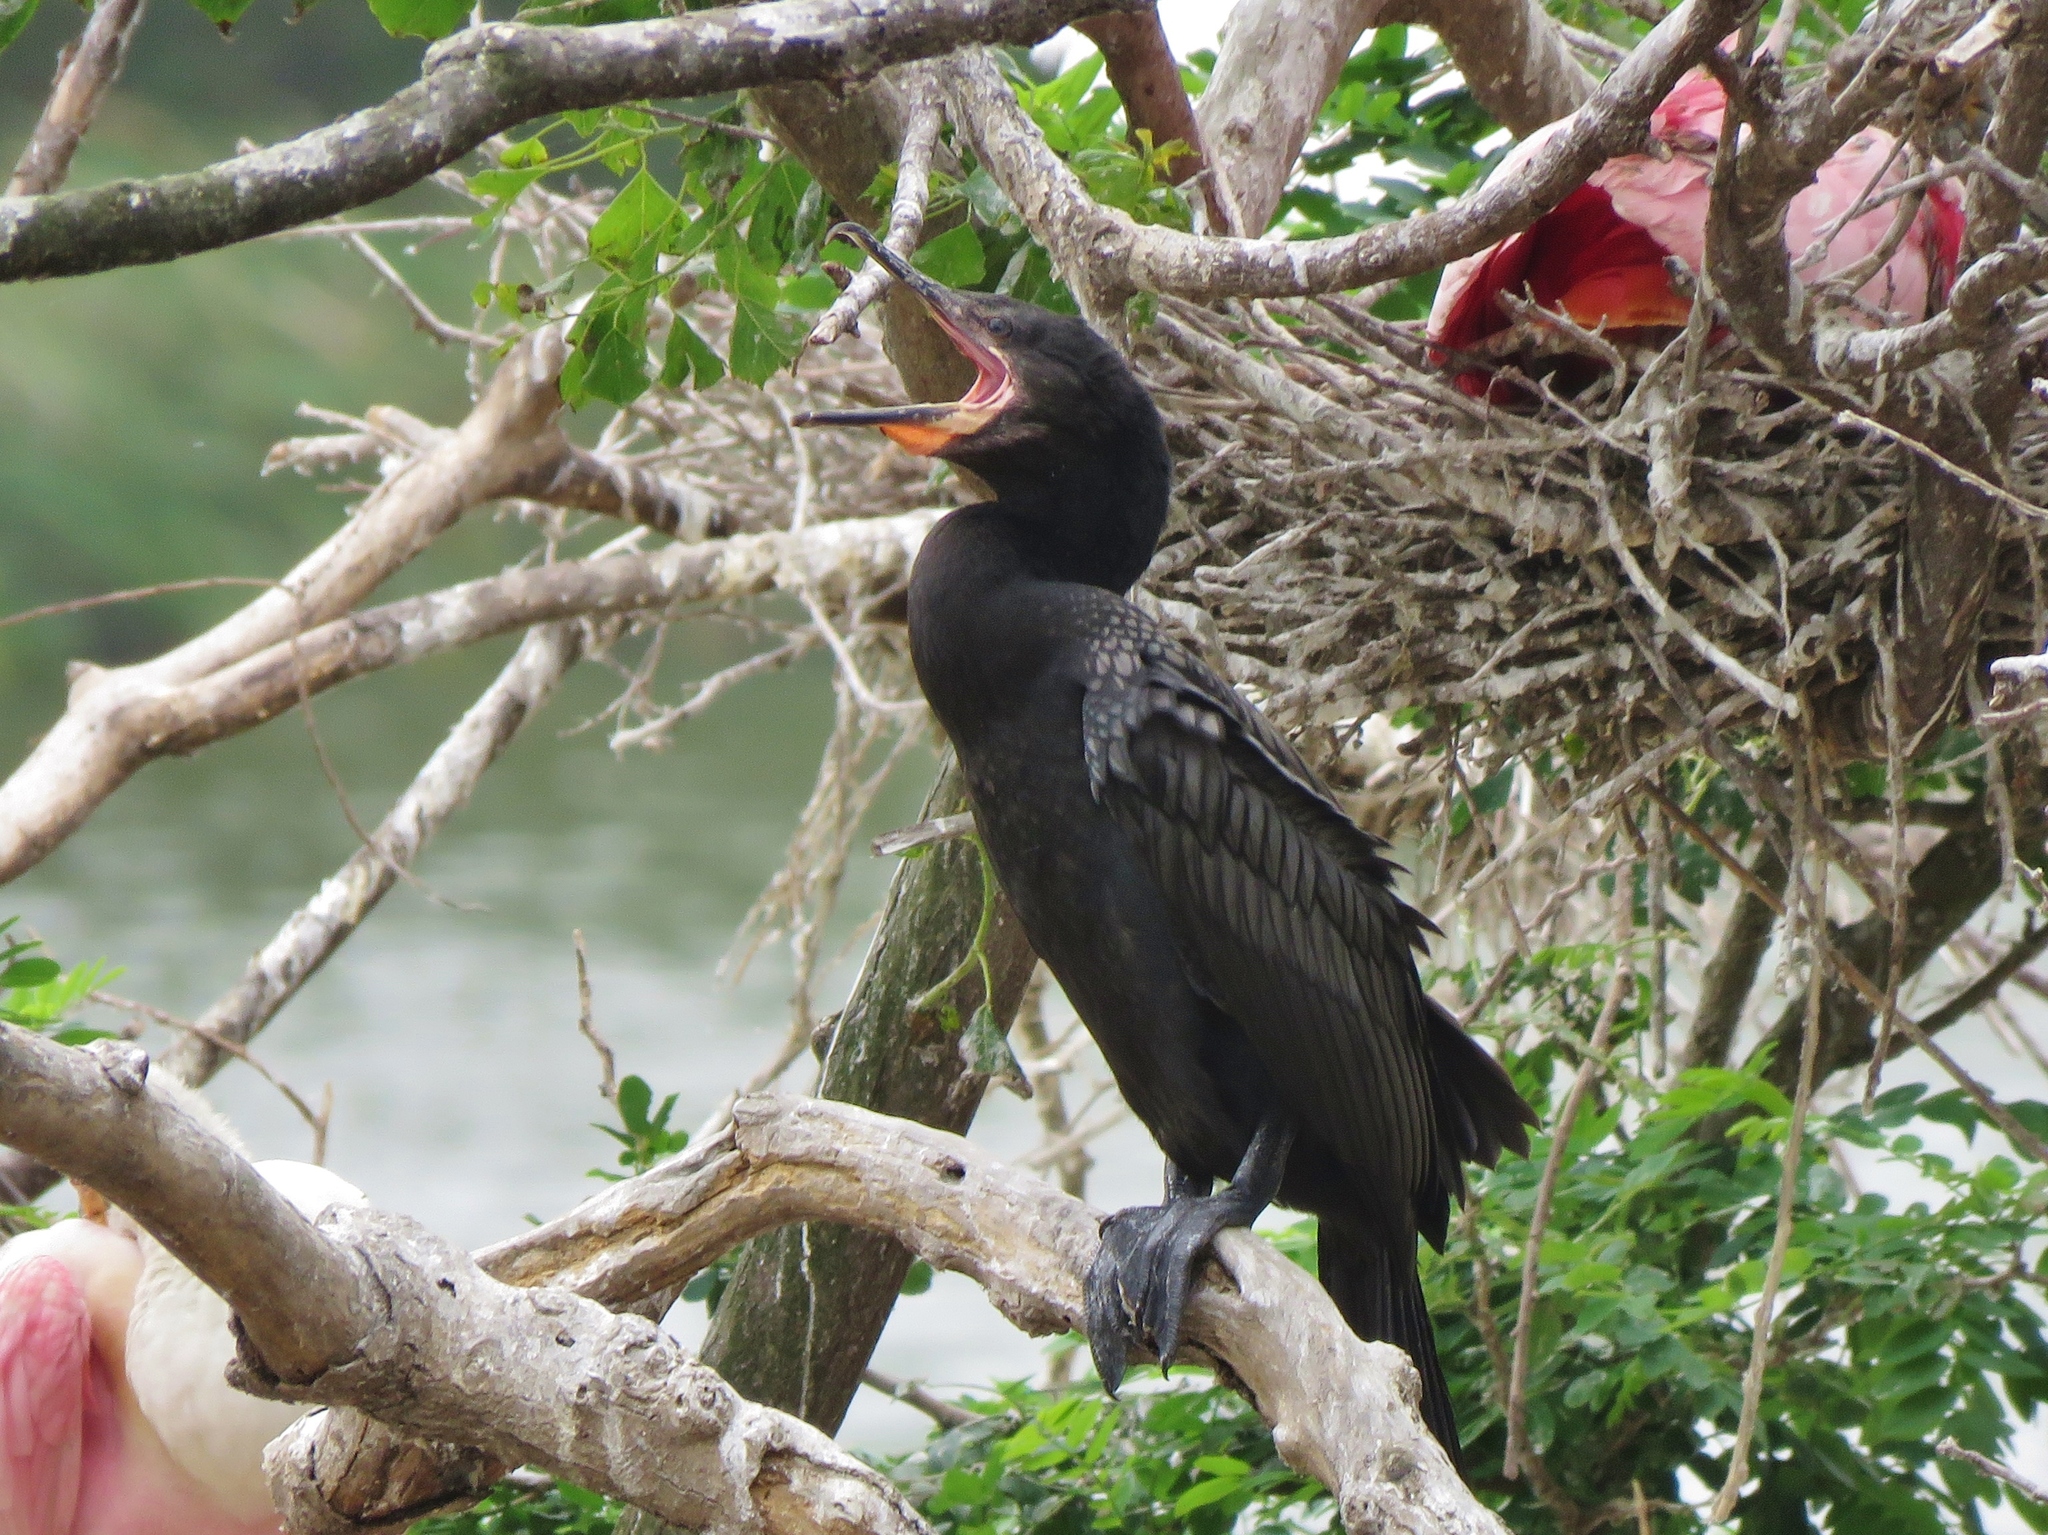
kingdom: Animalia
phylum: Chordata
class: Aves
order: Suliformes
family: Phalacrocoracidae
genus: Phalacrocorax
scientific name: Phalacrocorax brasilianus
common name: Neotropic cormorant
